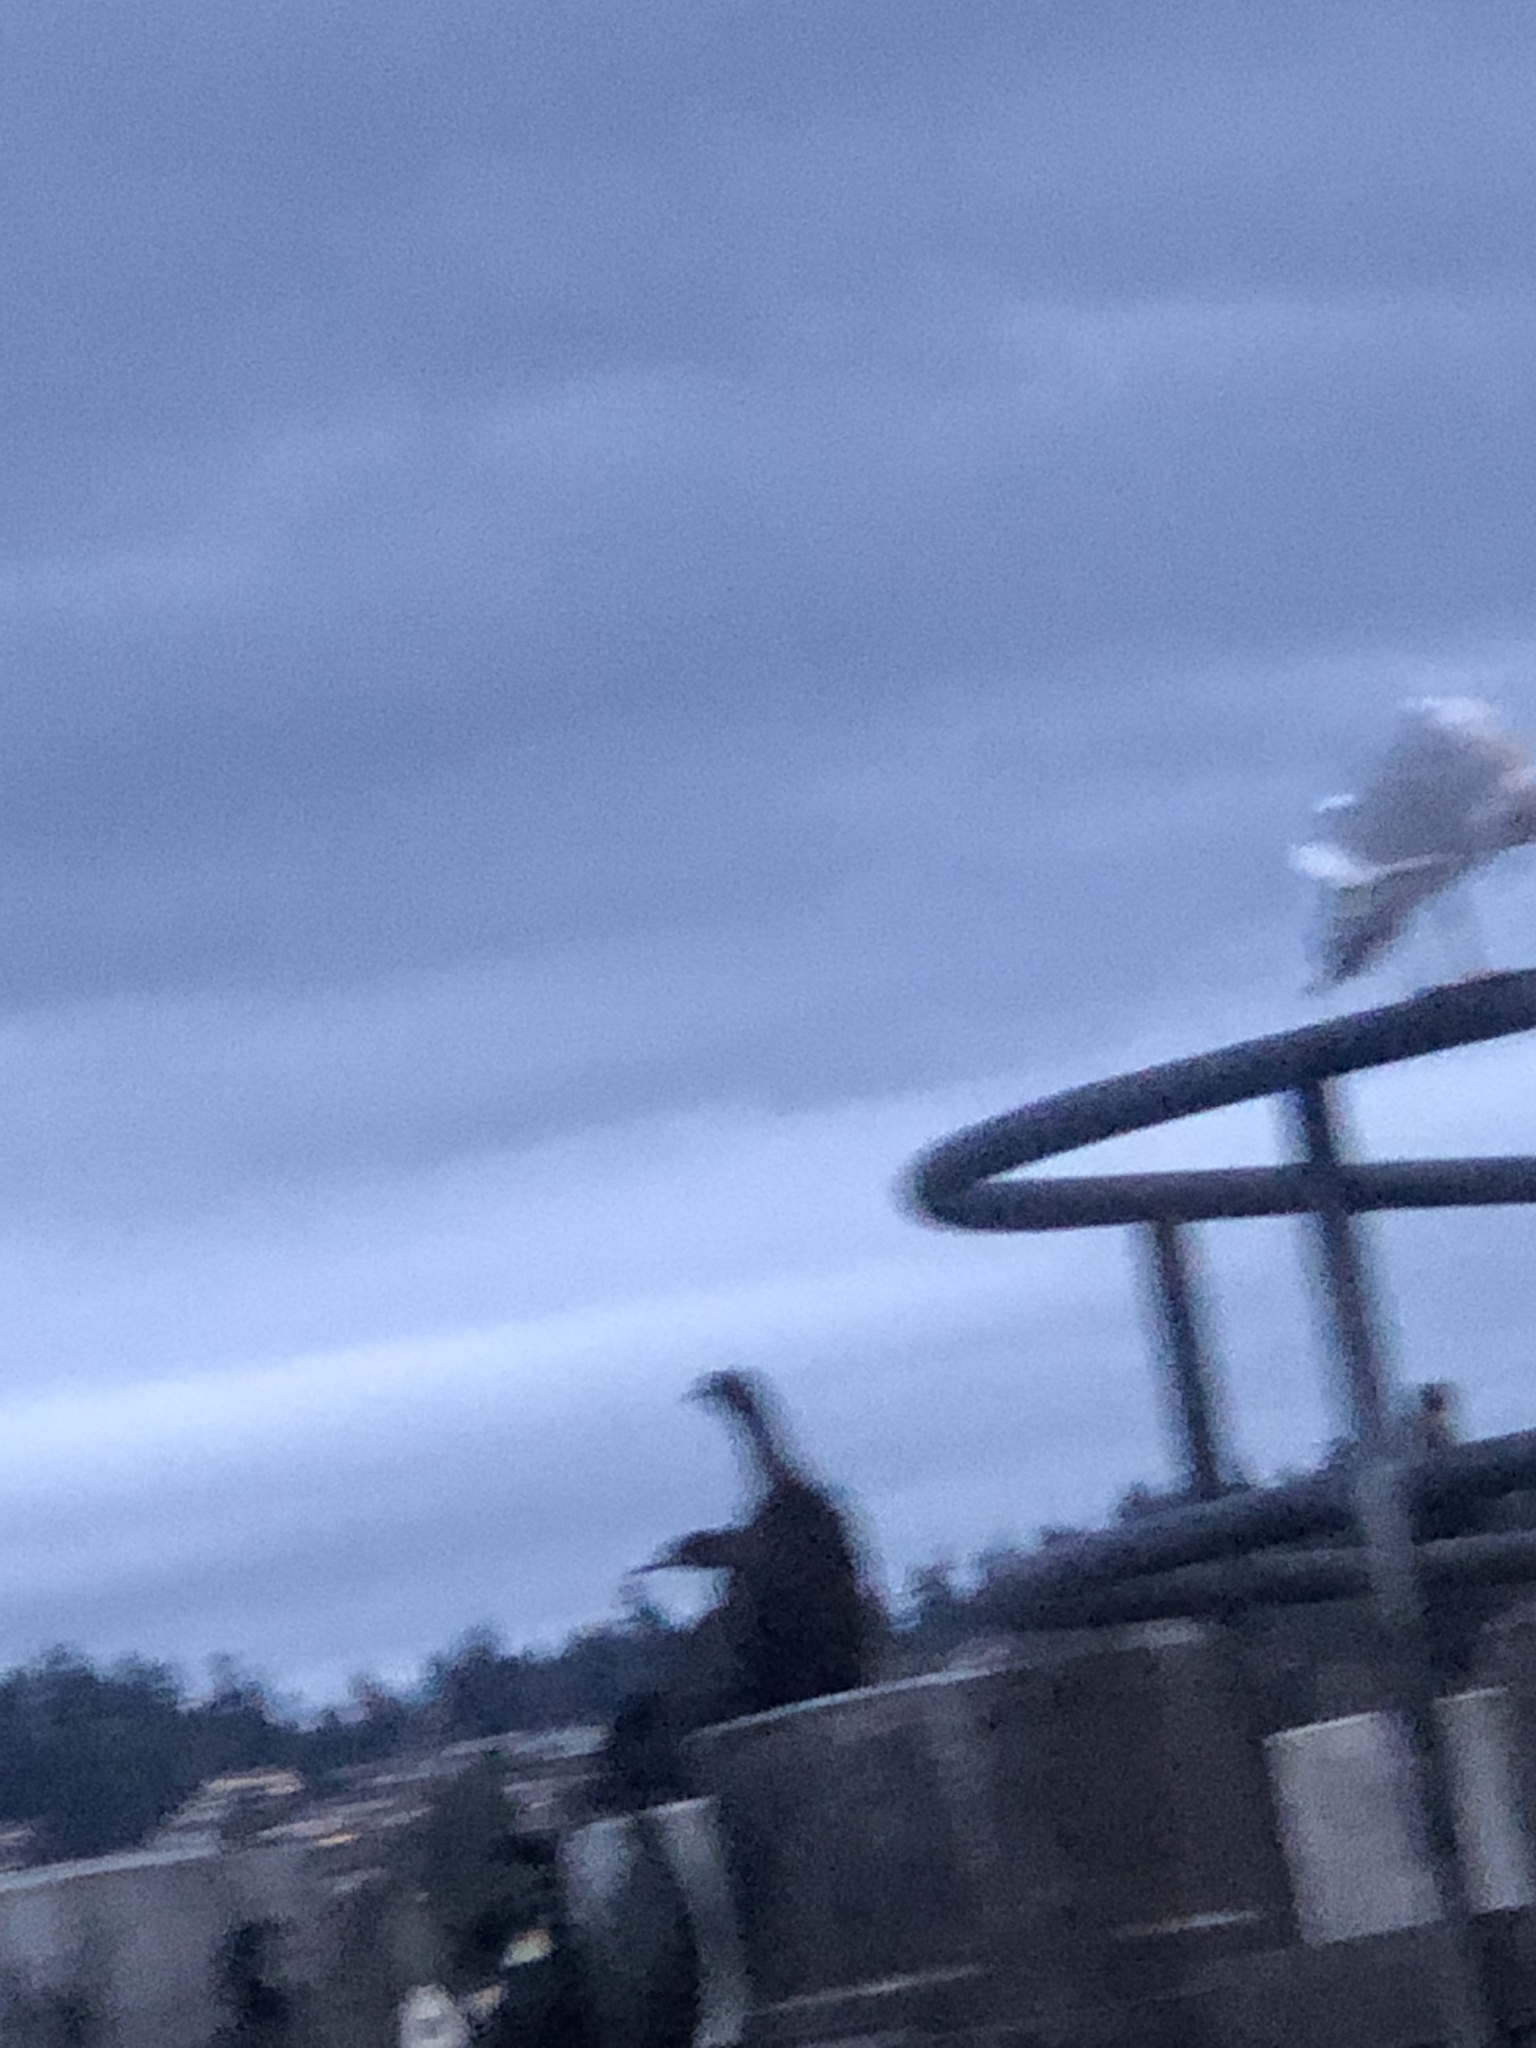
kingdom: Animalia
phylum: Chordata
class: Aves
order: Charadriiformes
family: Laridae
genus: Larus
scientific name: Larus
